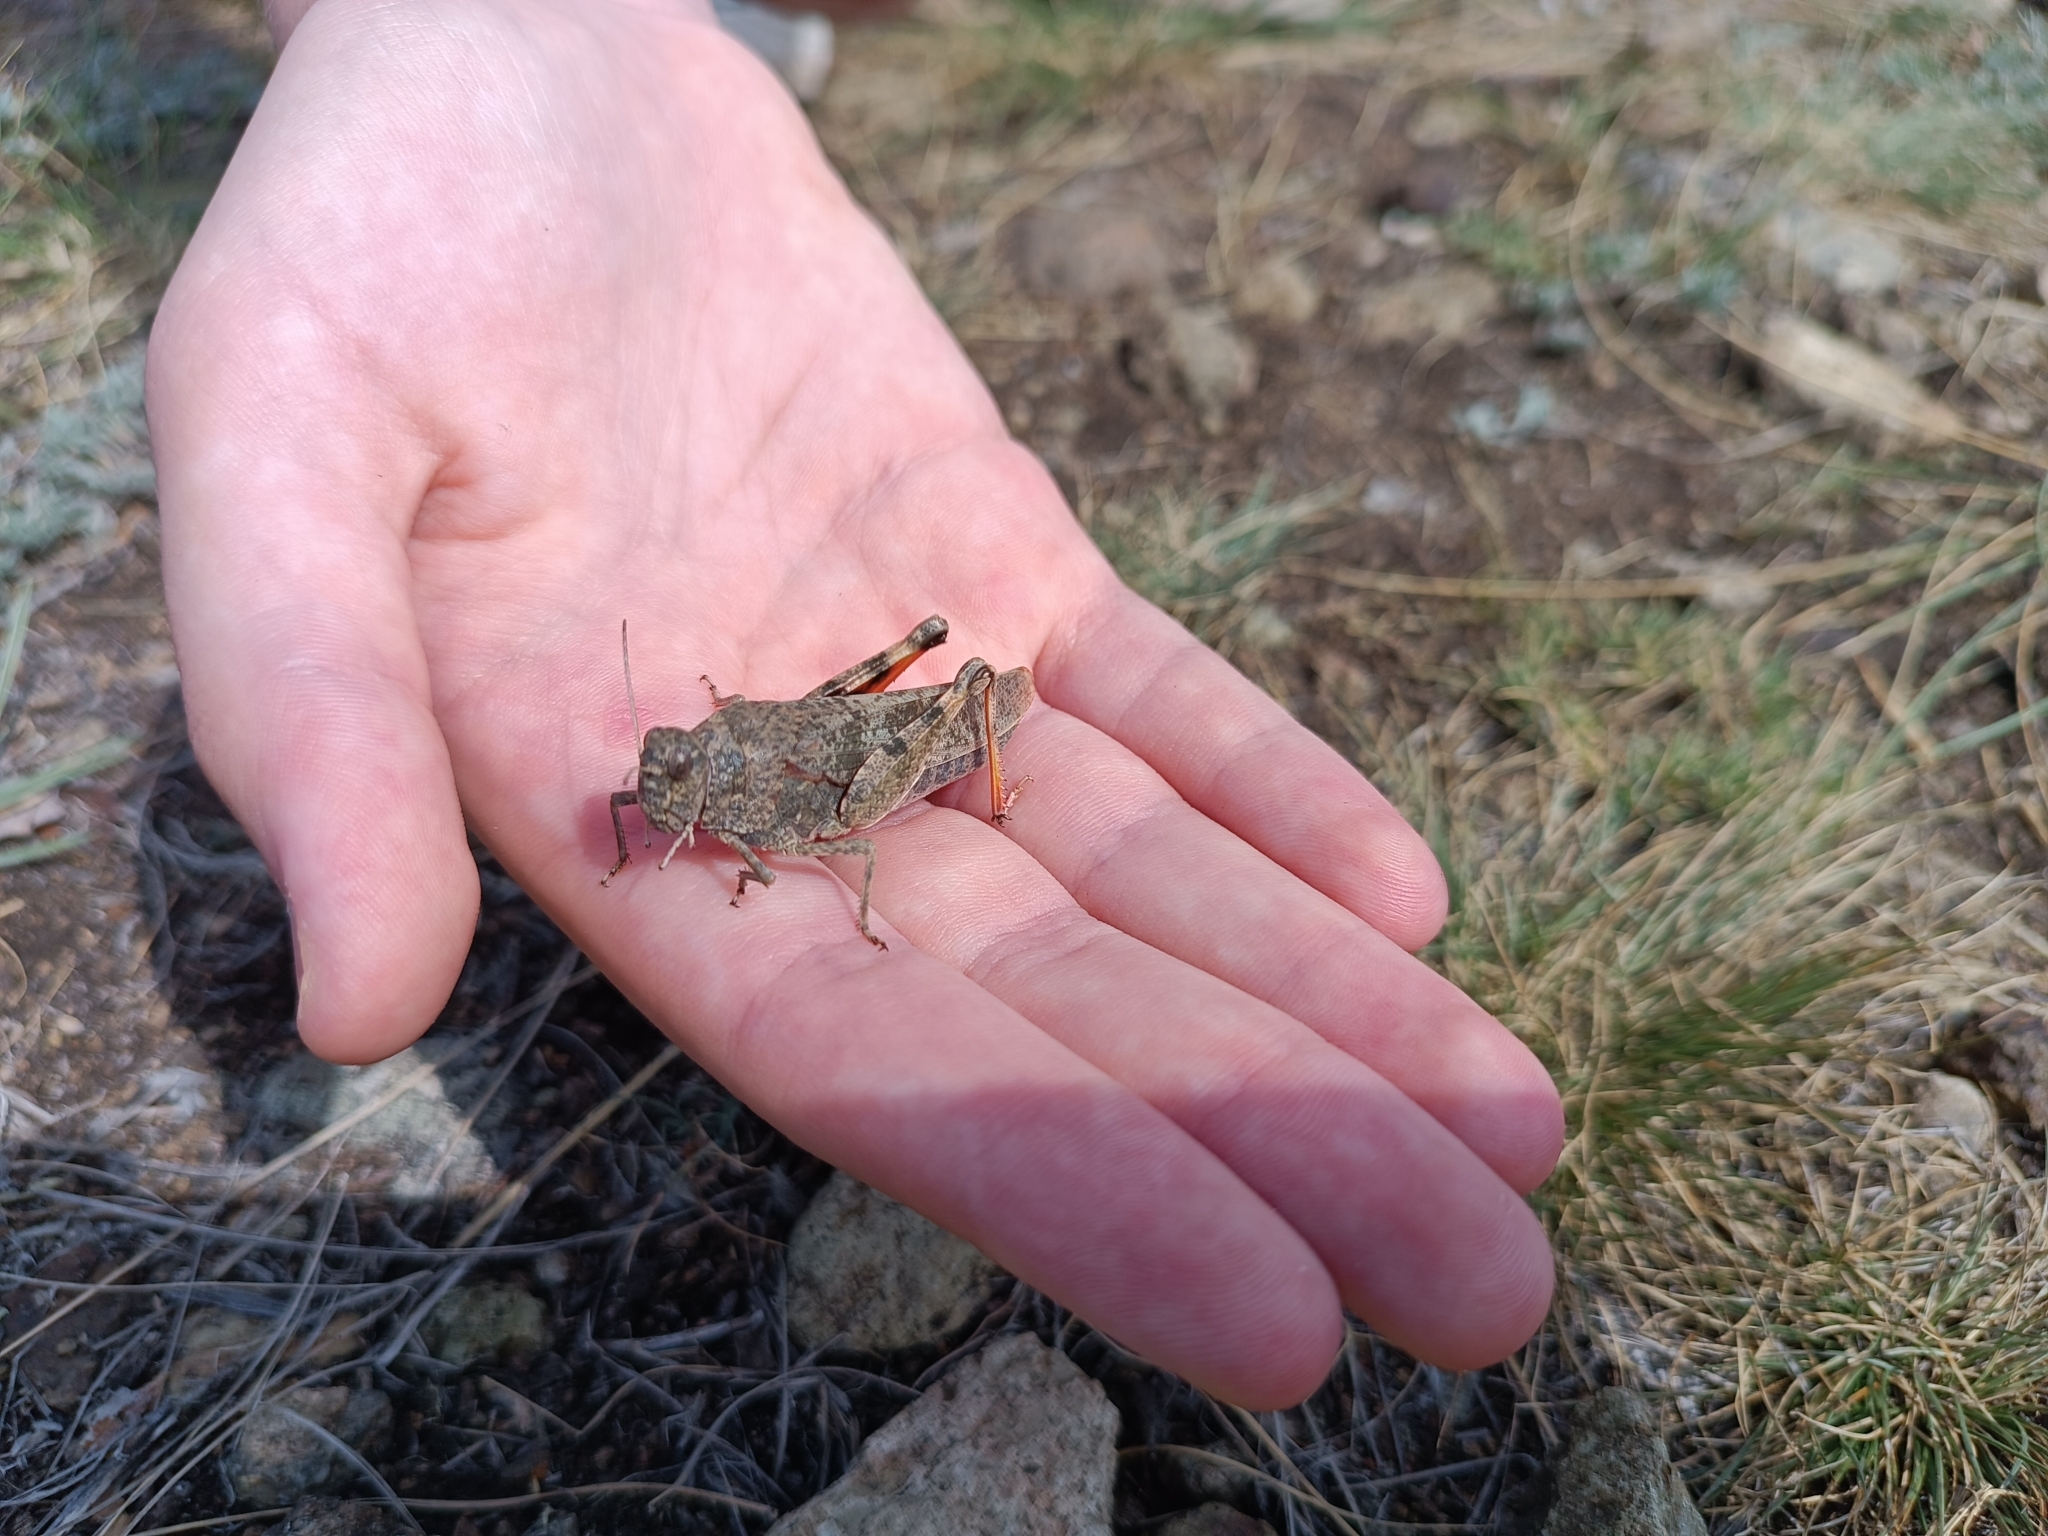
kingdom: Animalia
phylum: Arthropoda
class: Insecta
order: Orthoptera
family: Acrididae
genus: Angaracris
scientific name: Angaracris barabensis
